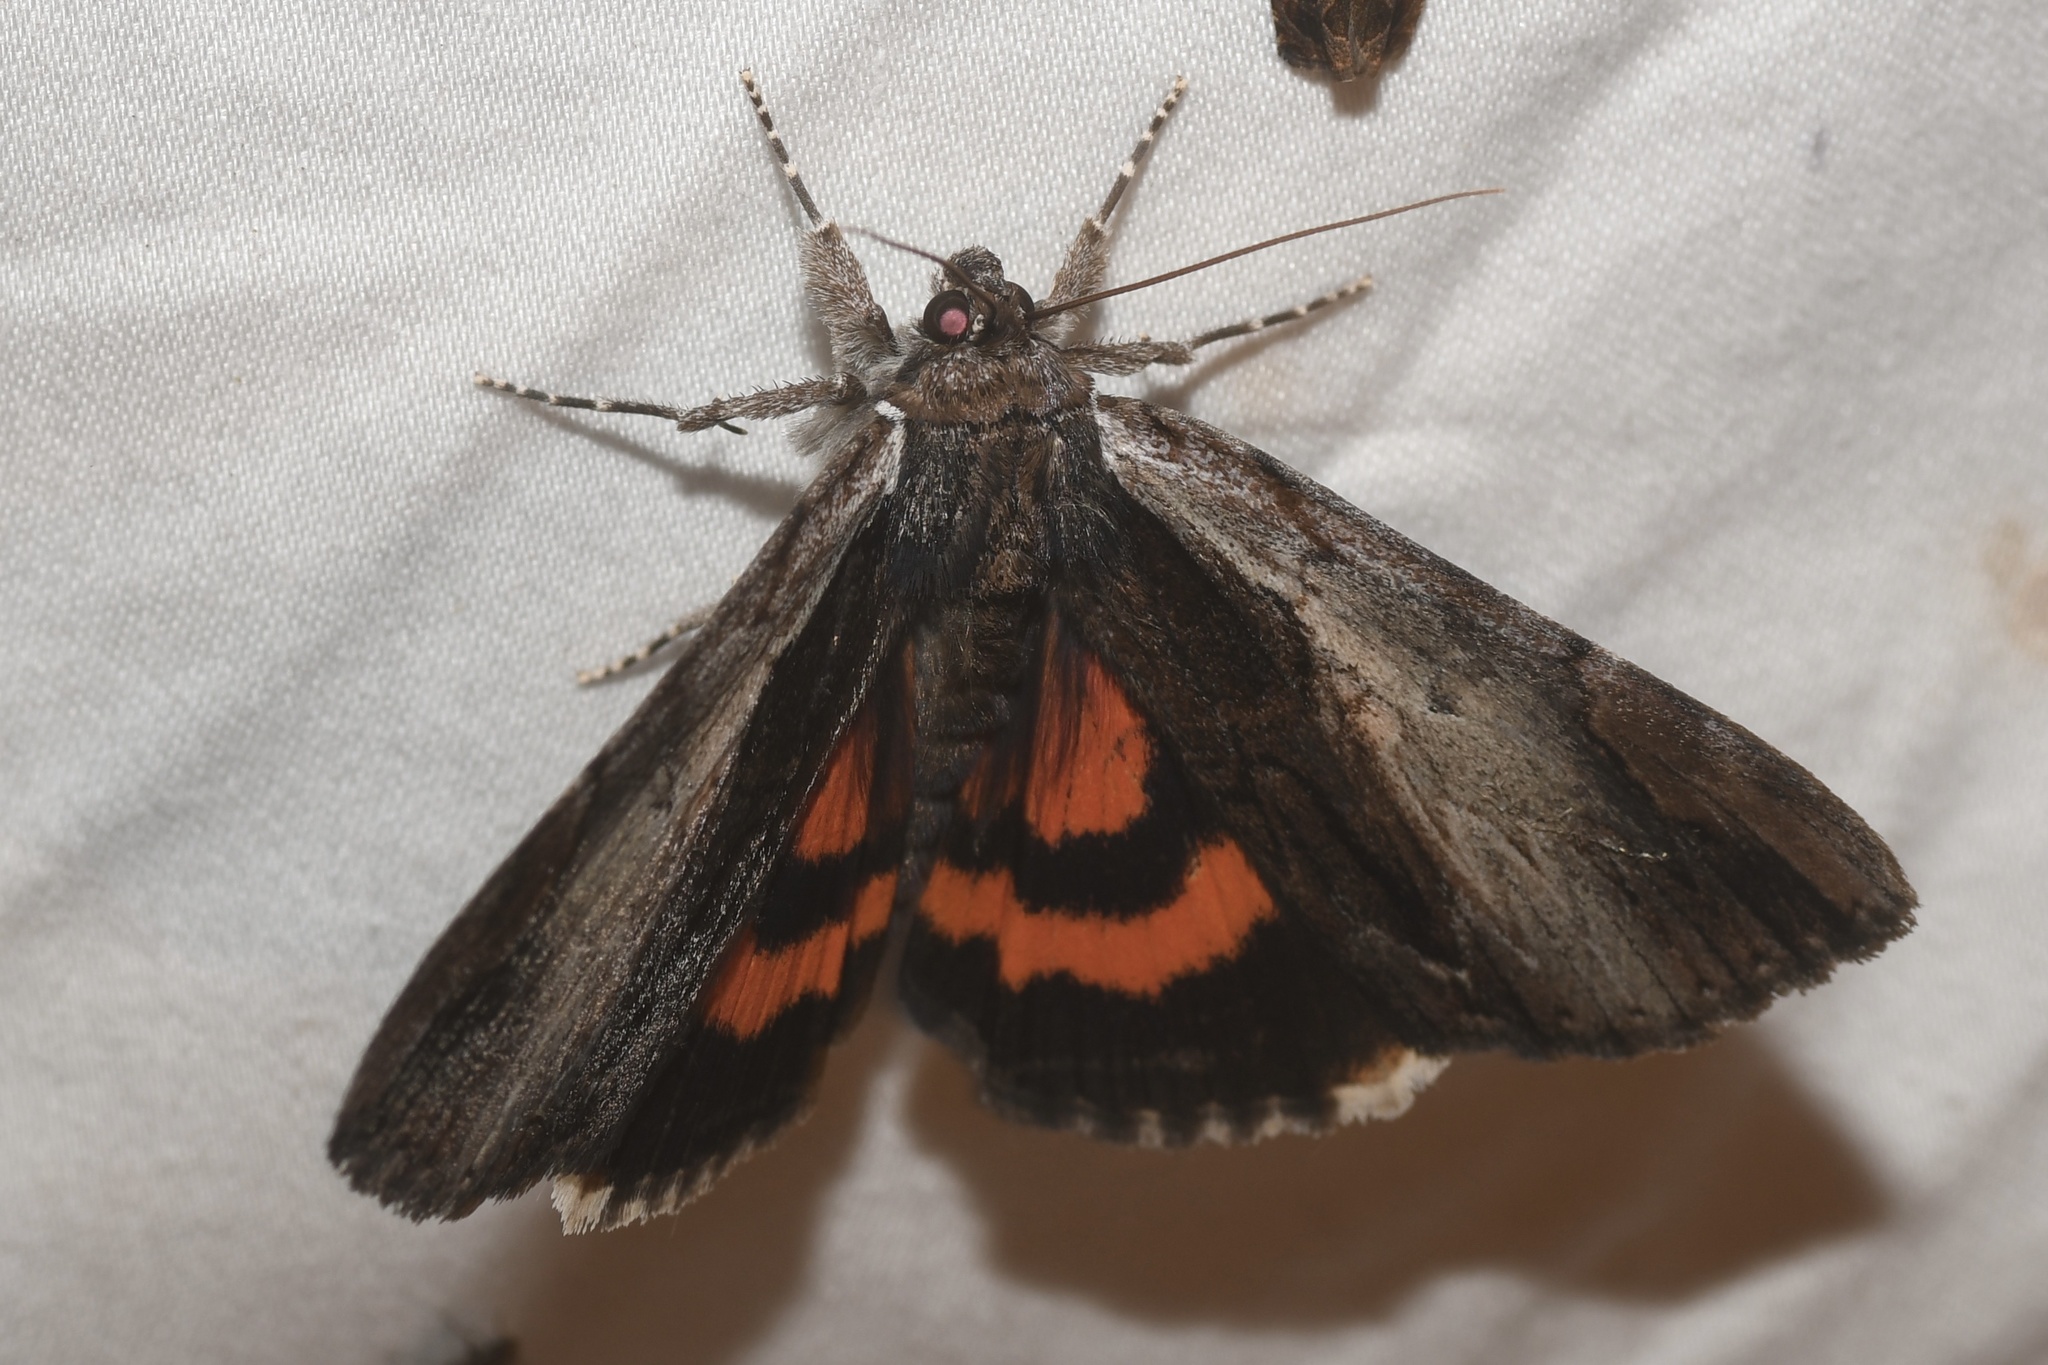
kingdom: Animalia
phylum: Arthropoda
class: Insecta
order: Lepidoptera
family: Erebidae
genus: Catocala
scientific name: Catocala ultronia
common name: Ultronia underwing
